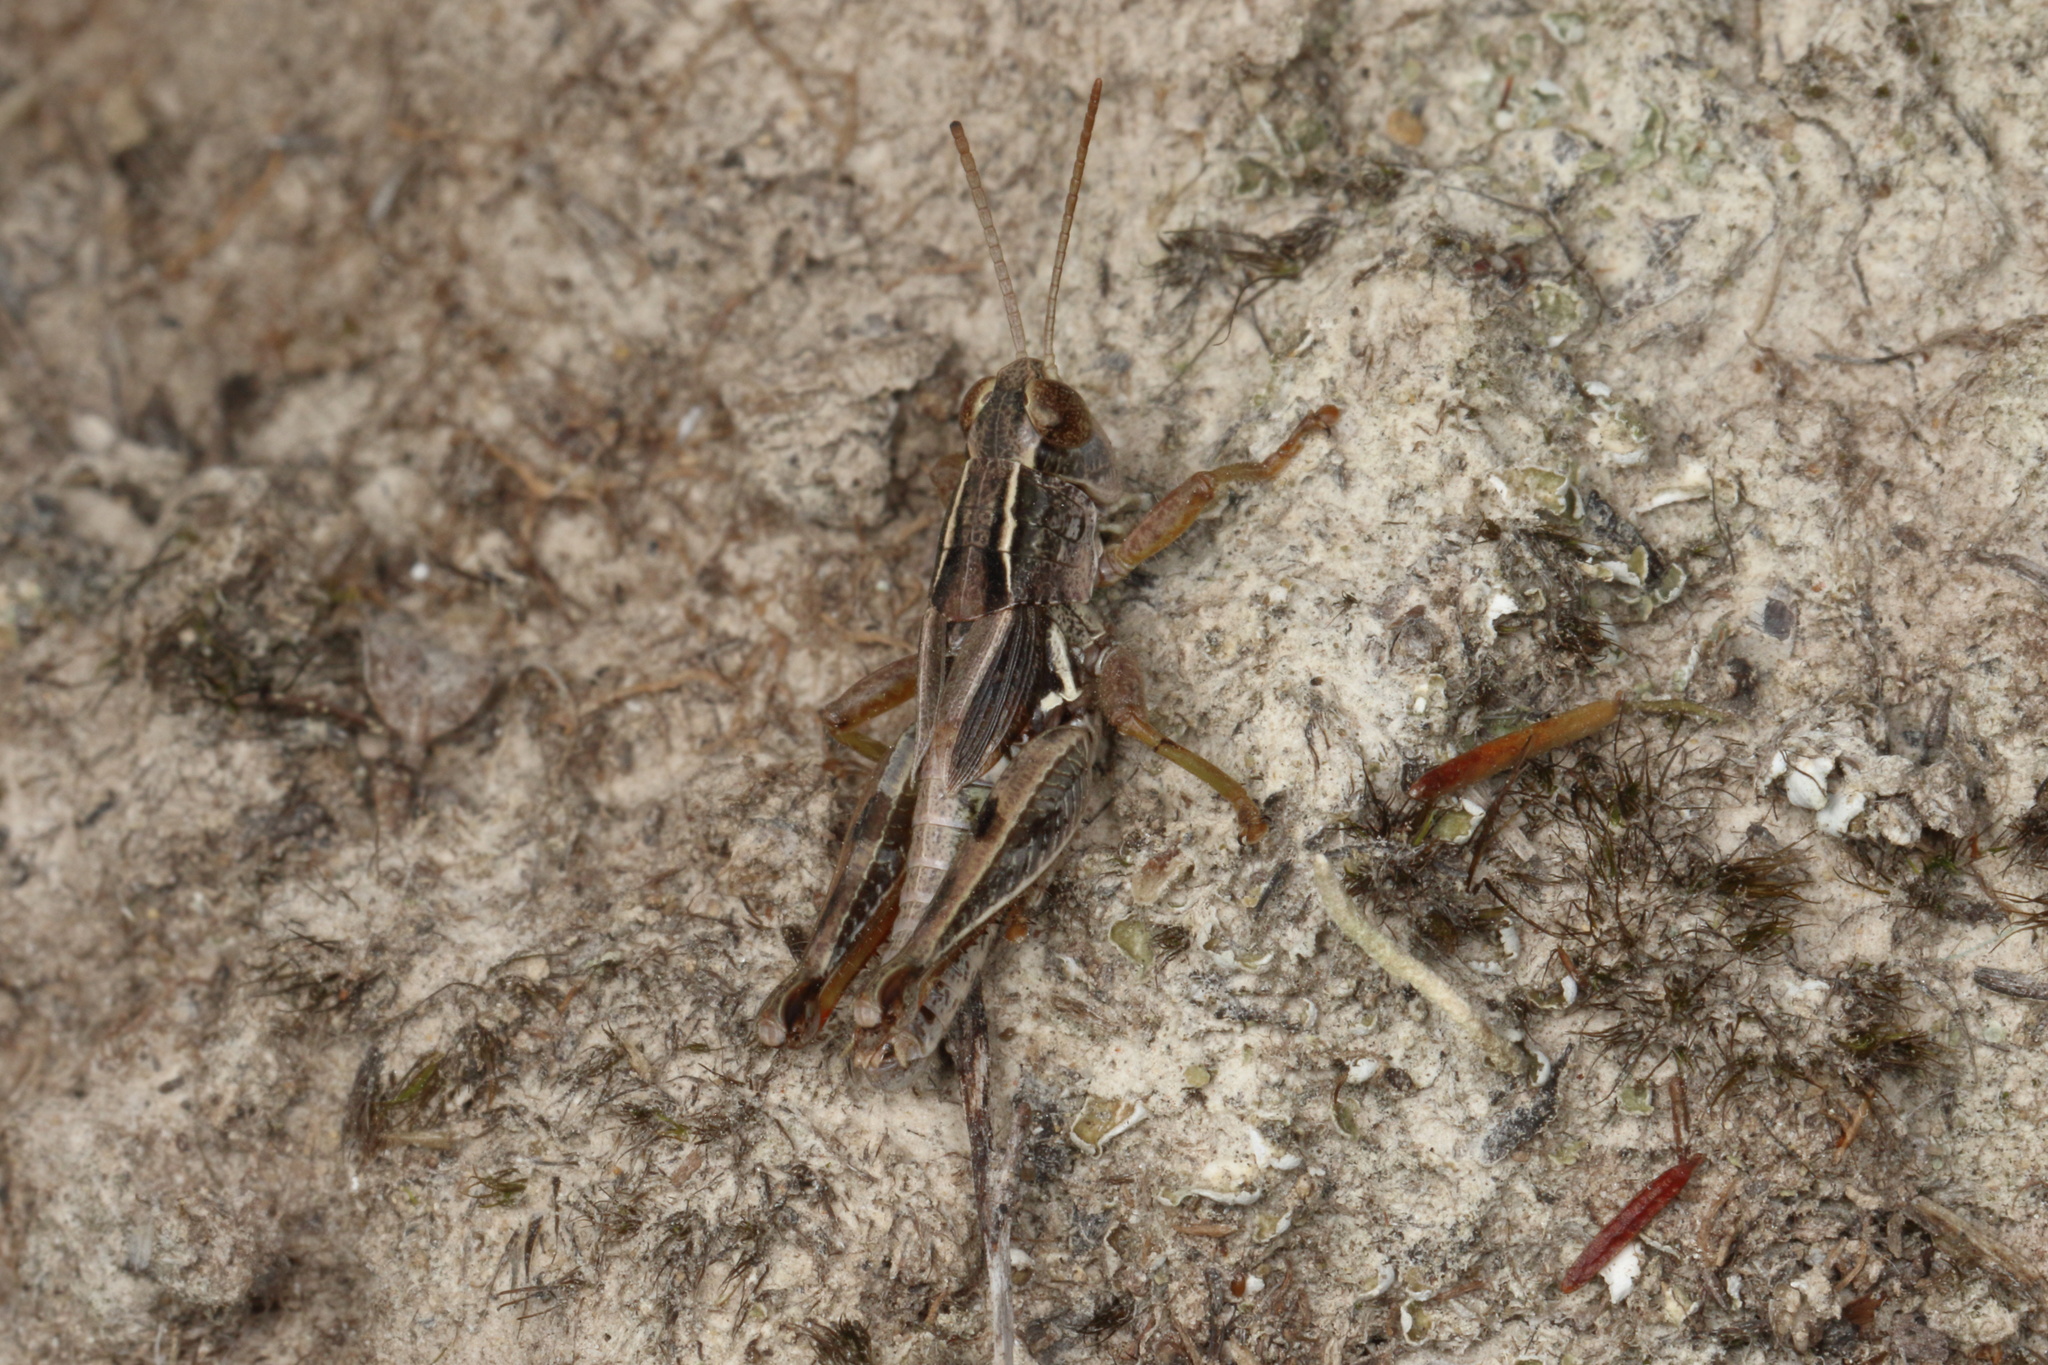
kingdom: Animalia
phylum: Arthropoda
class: Insecta
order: Orthoptera
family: Acrididae
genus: Phaulacridium
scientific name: Phaulacridium marginale
